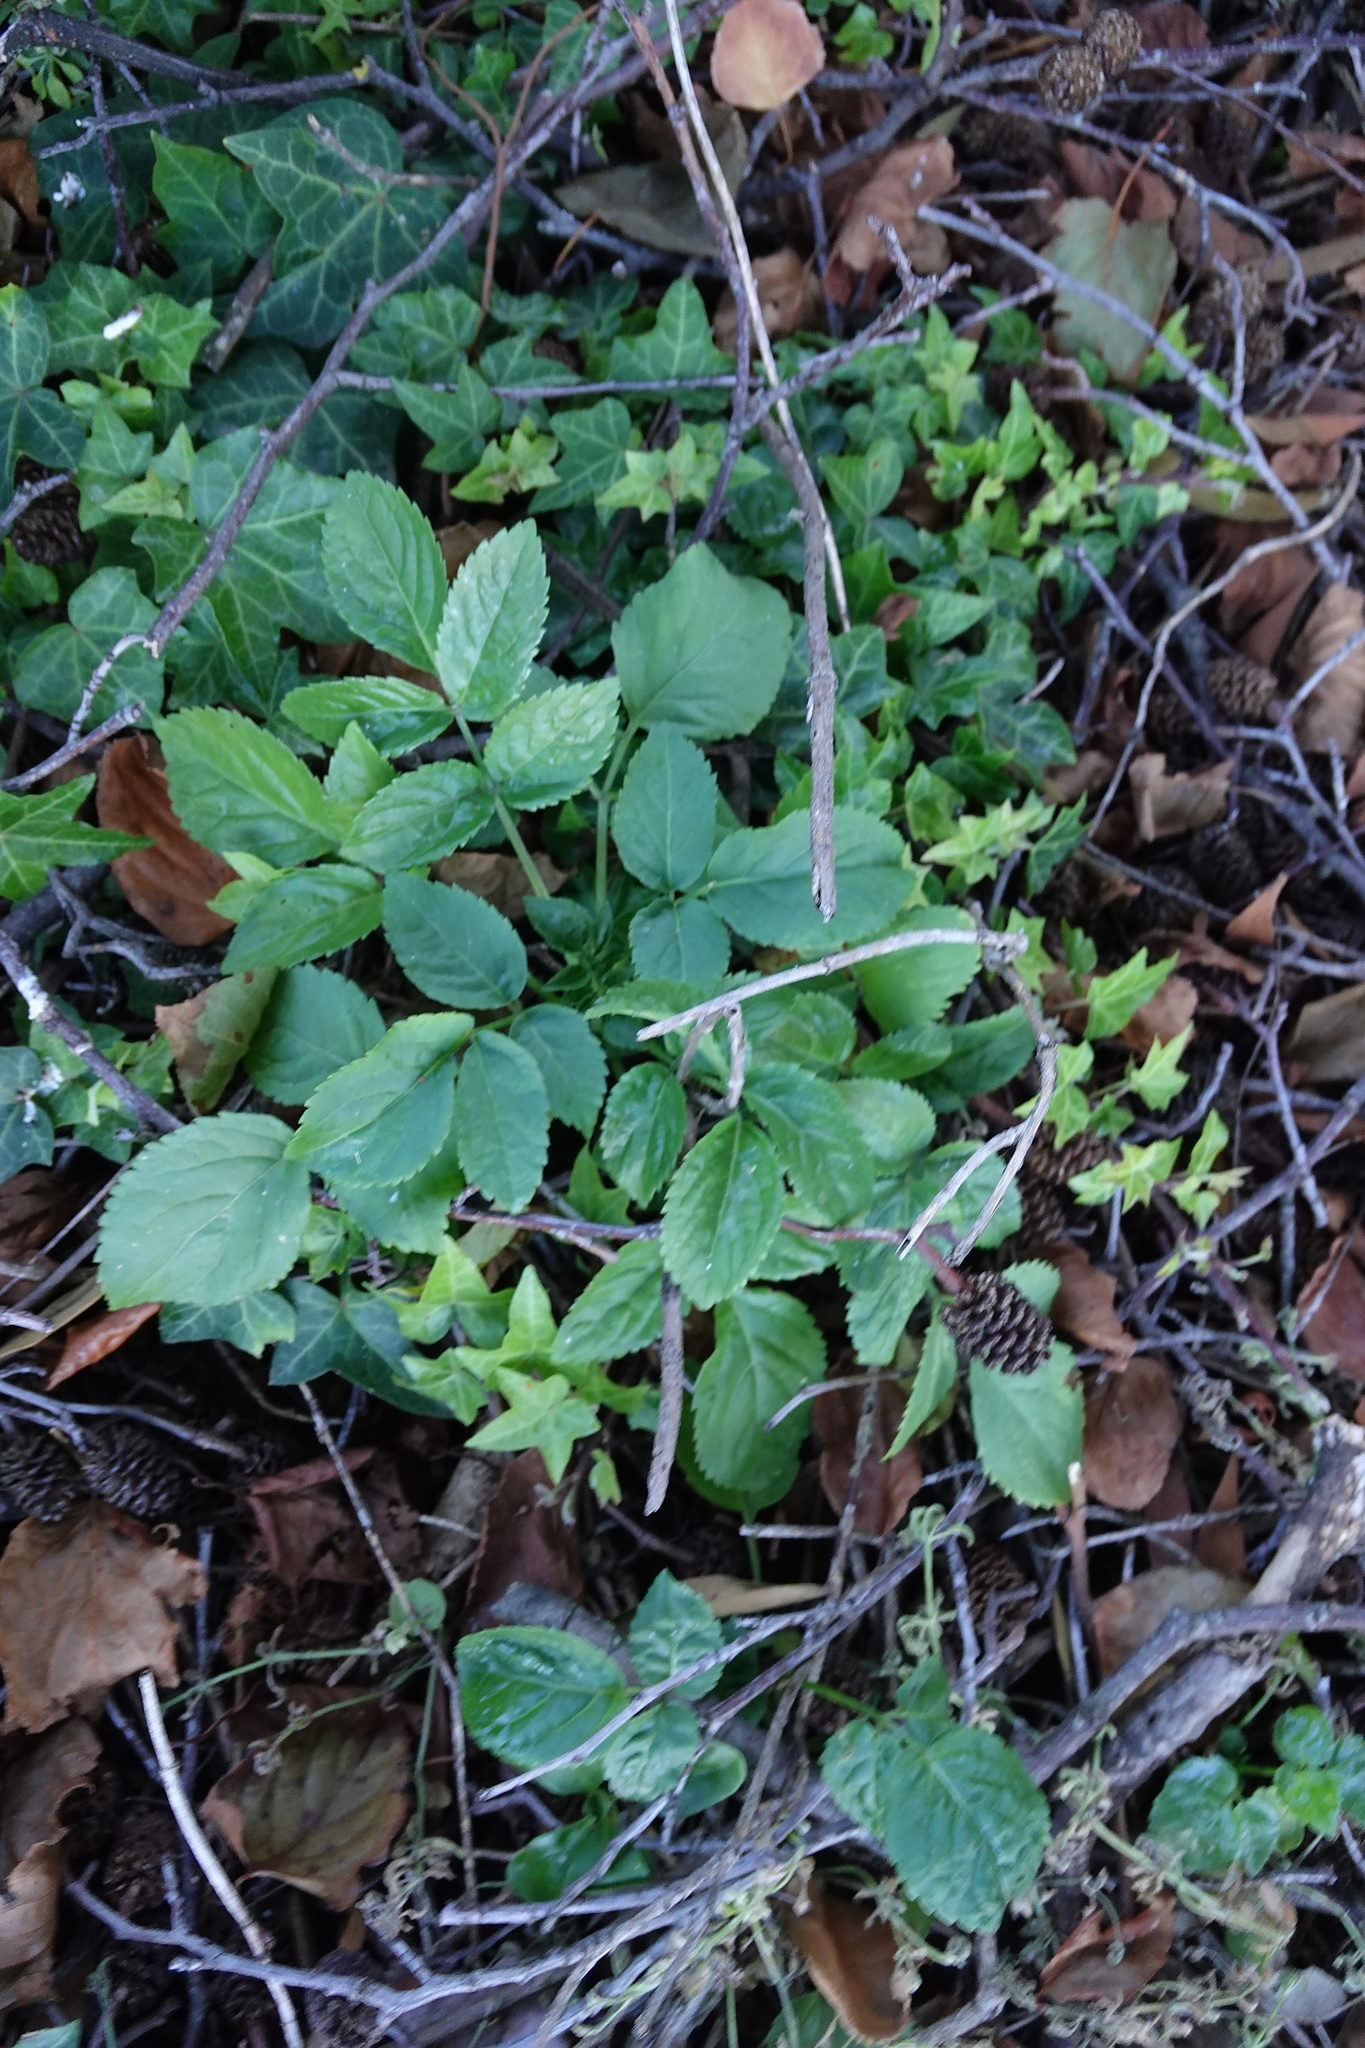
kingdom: Plantae
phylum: Tracheophyta
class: Magnoliopsida
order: Dipsacales
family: Viburnaceae
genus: Sambucus
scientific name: Sambucus nigra
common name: Elder
